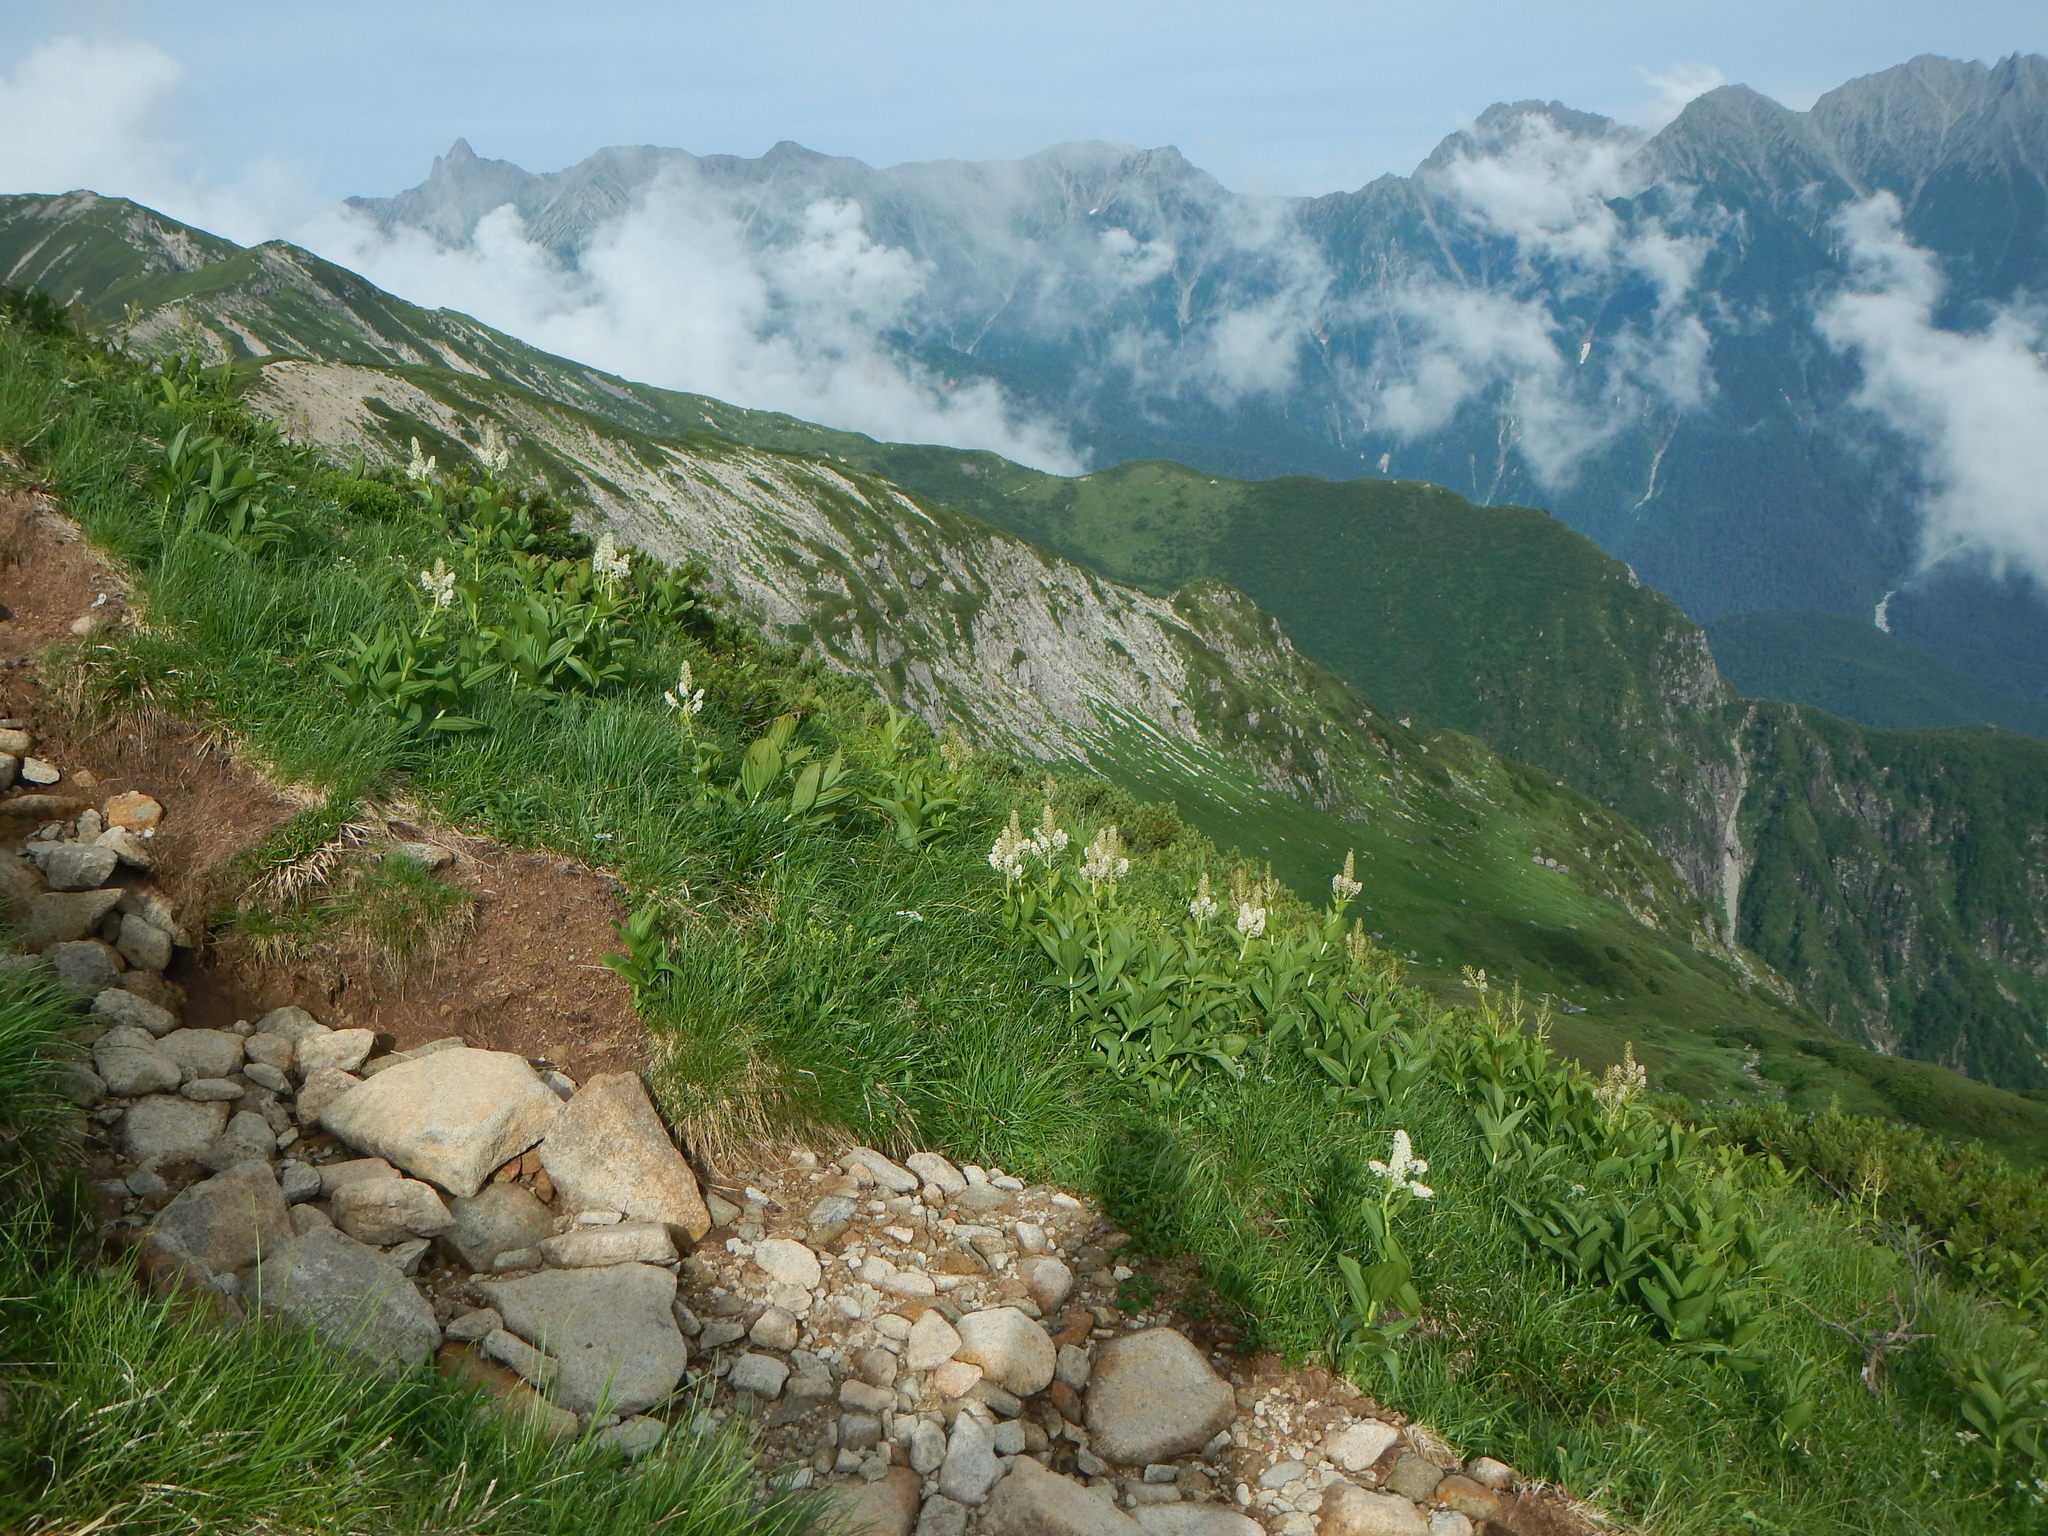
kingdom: Plantae
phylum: Tracheophyta
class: Liliopsida
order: Liliales
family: Melanthiaceae
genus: Veratrum
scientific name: Veratrum stamineum
